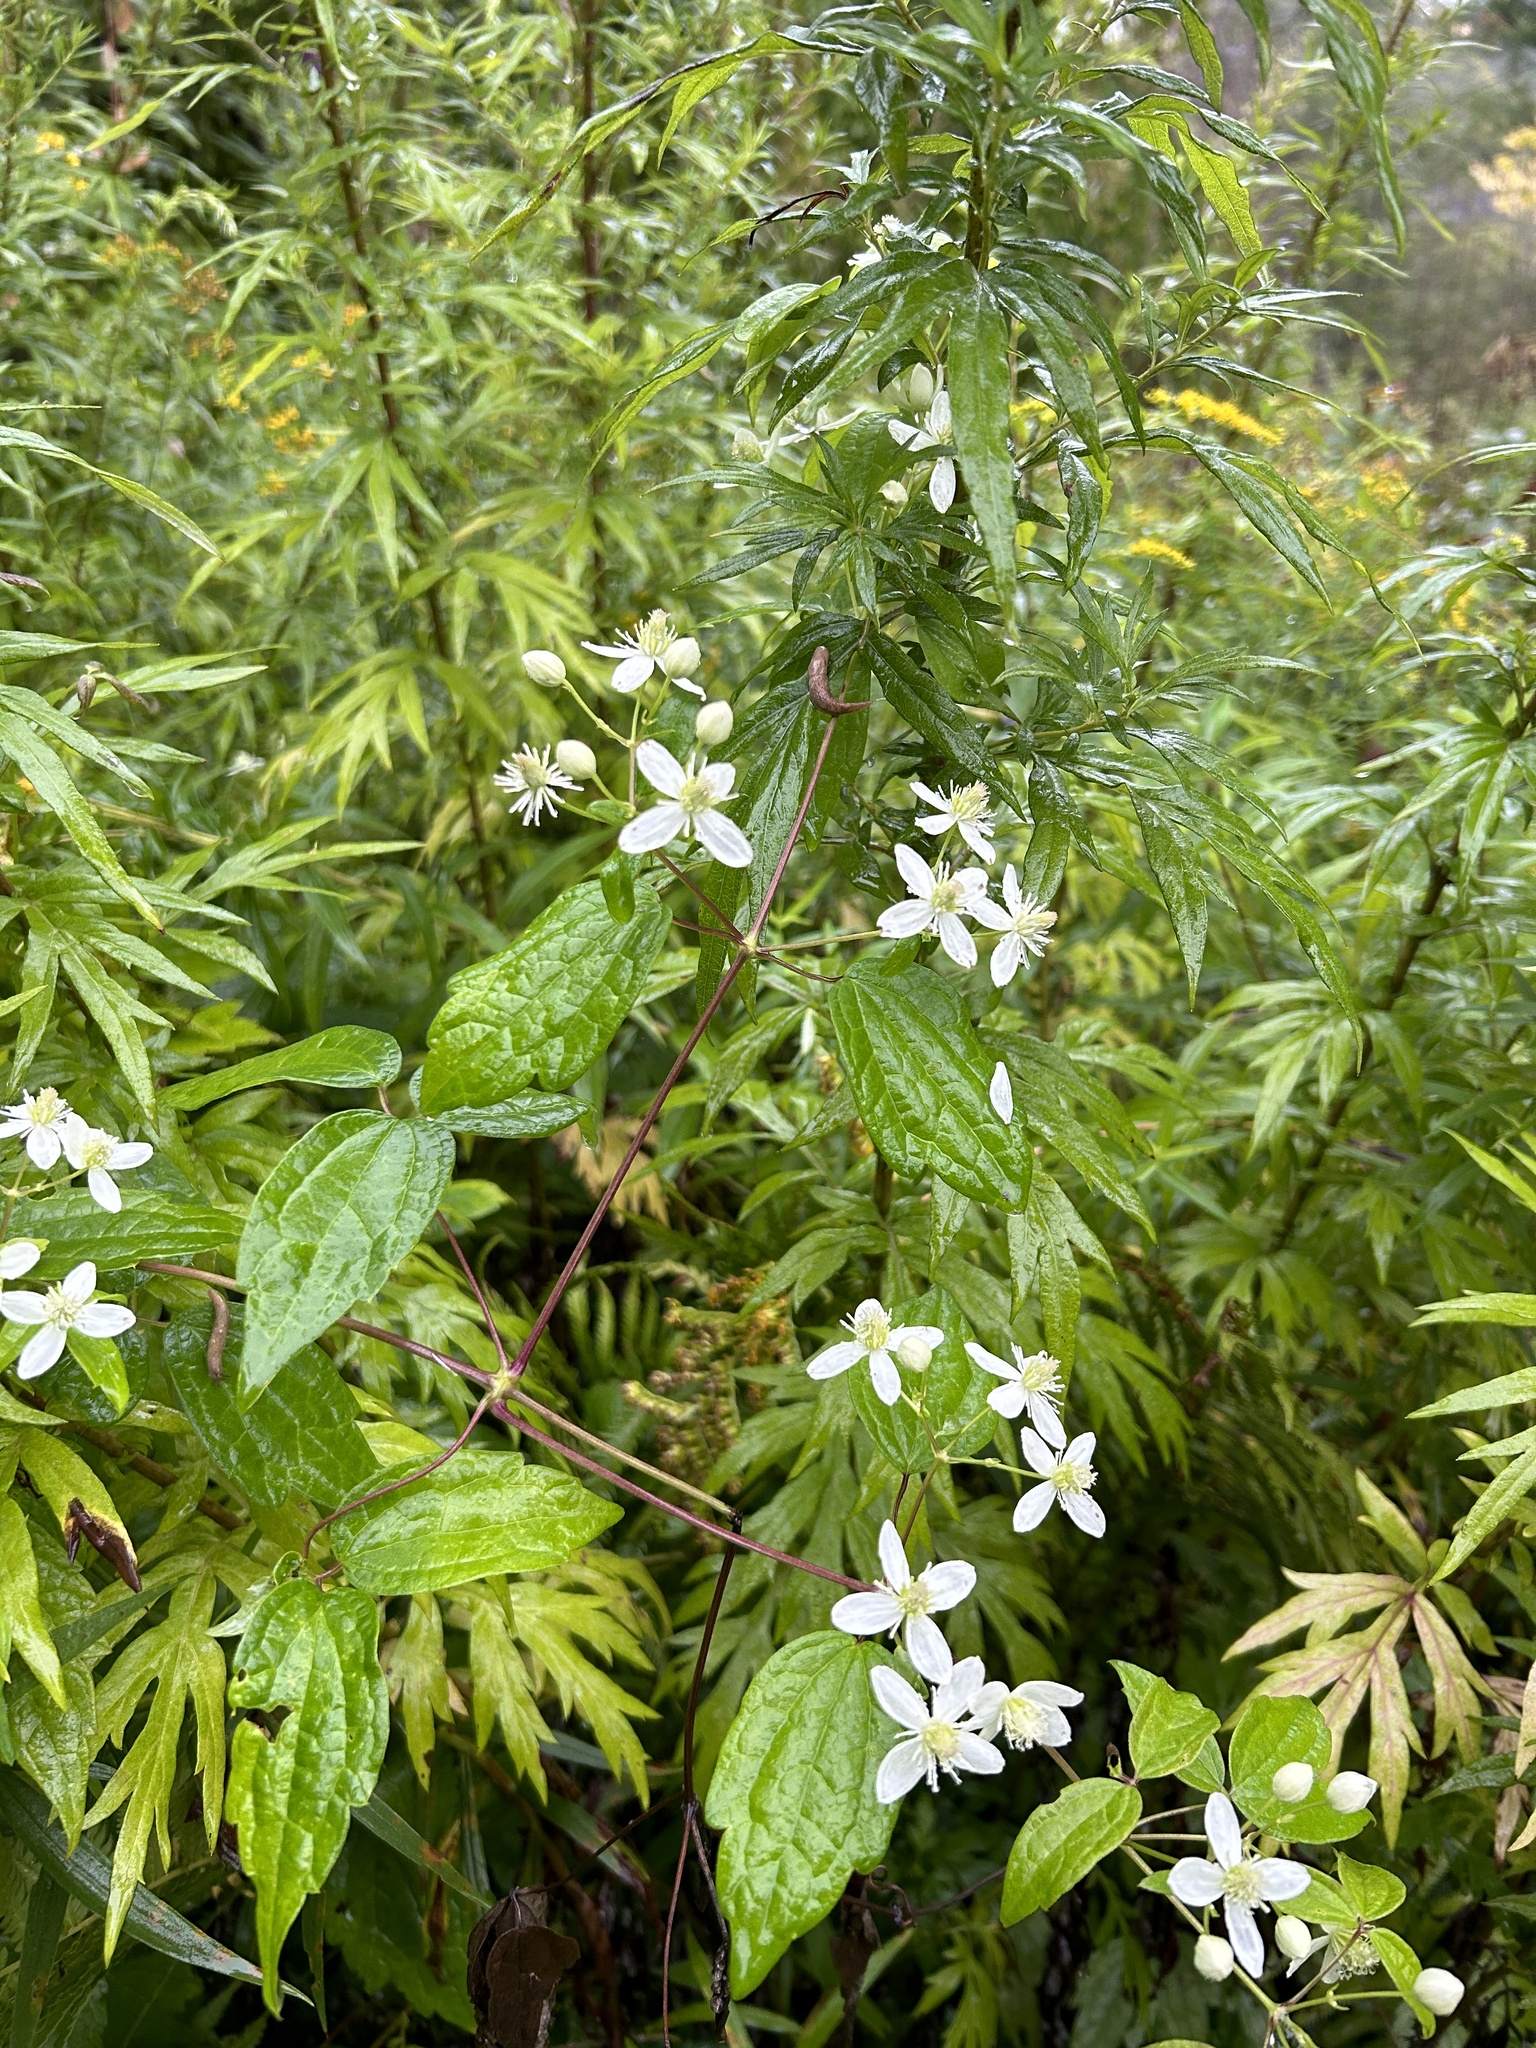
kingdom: Plantae
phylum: Tracheophyta
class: Magnoliopsida
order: Ranunculales
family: Ranunculaceae
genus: Clematis
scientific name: Clematis virginiana
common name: Virgin's-bower
